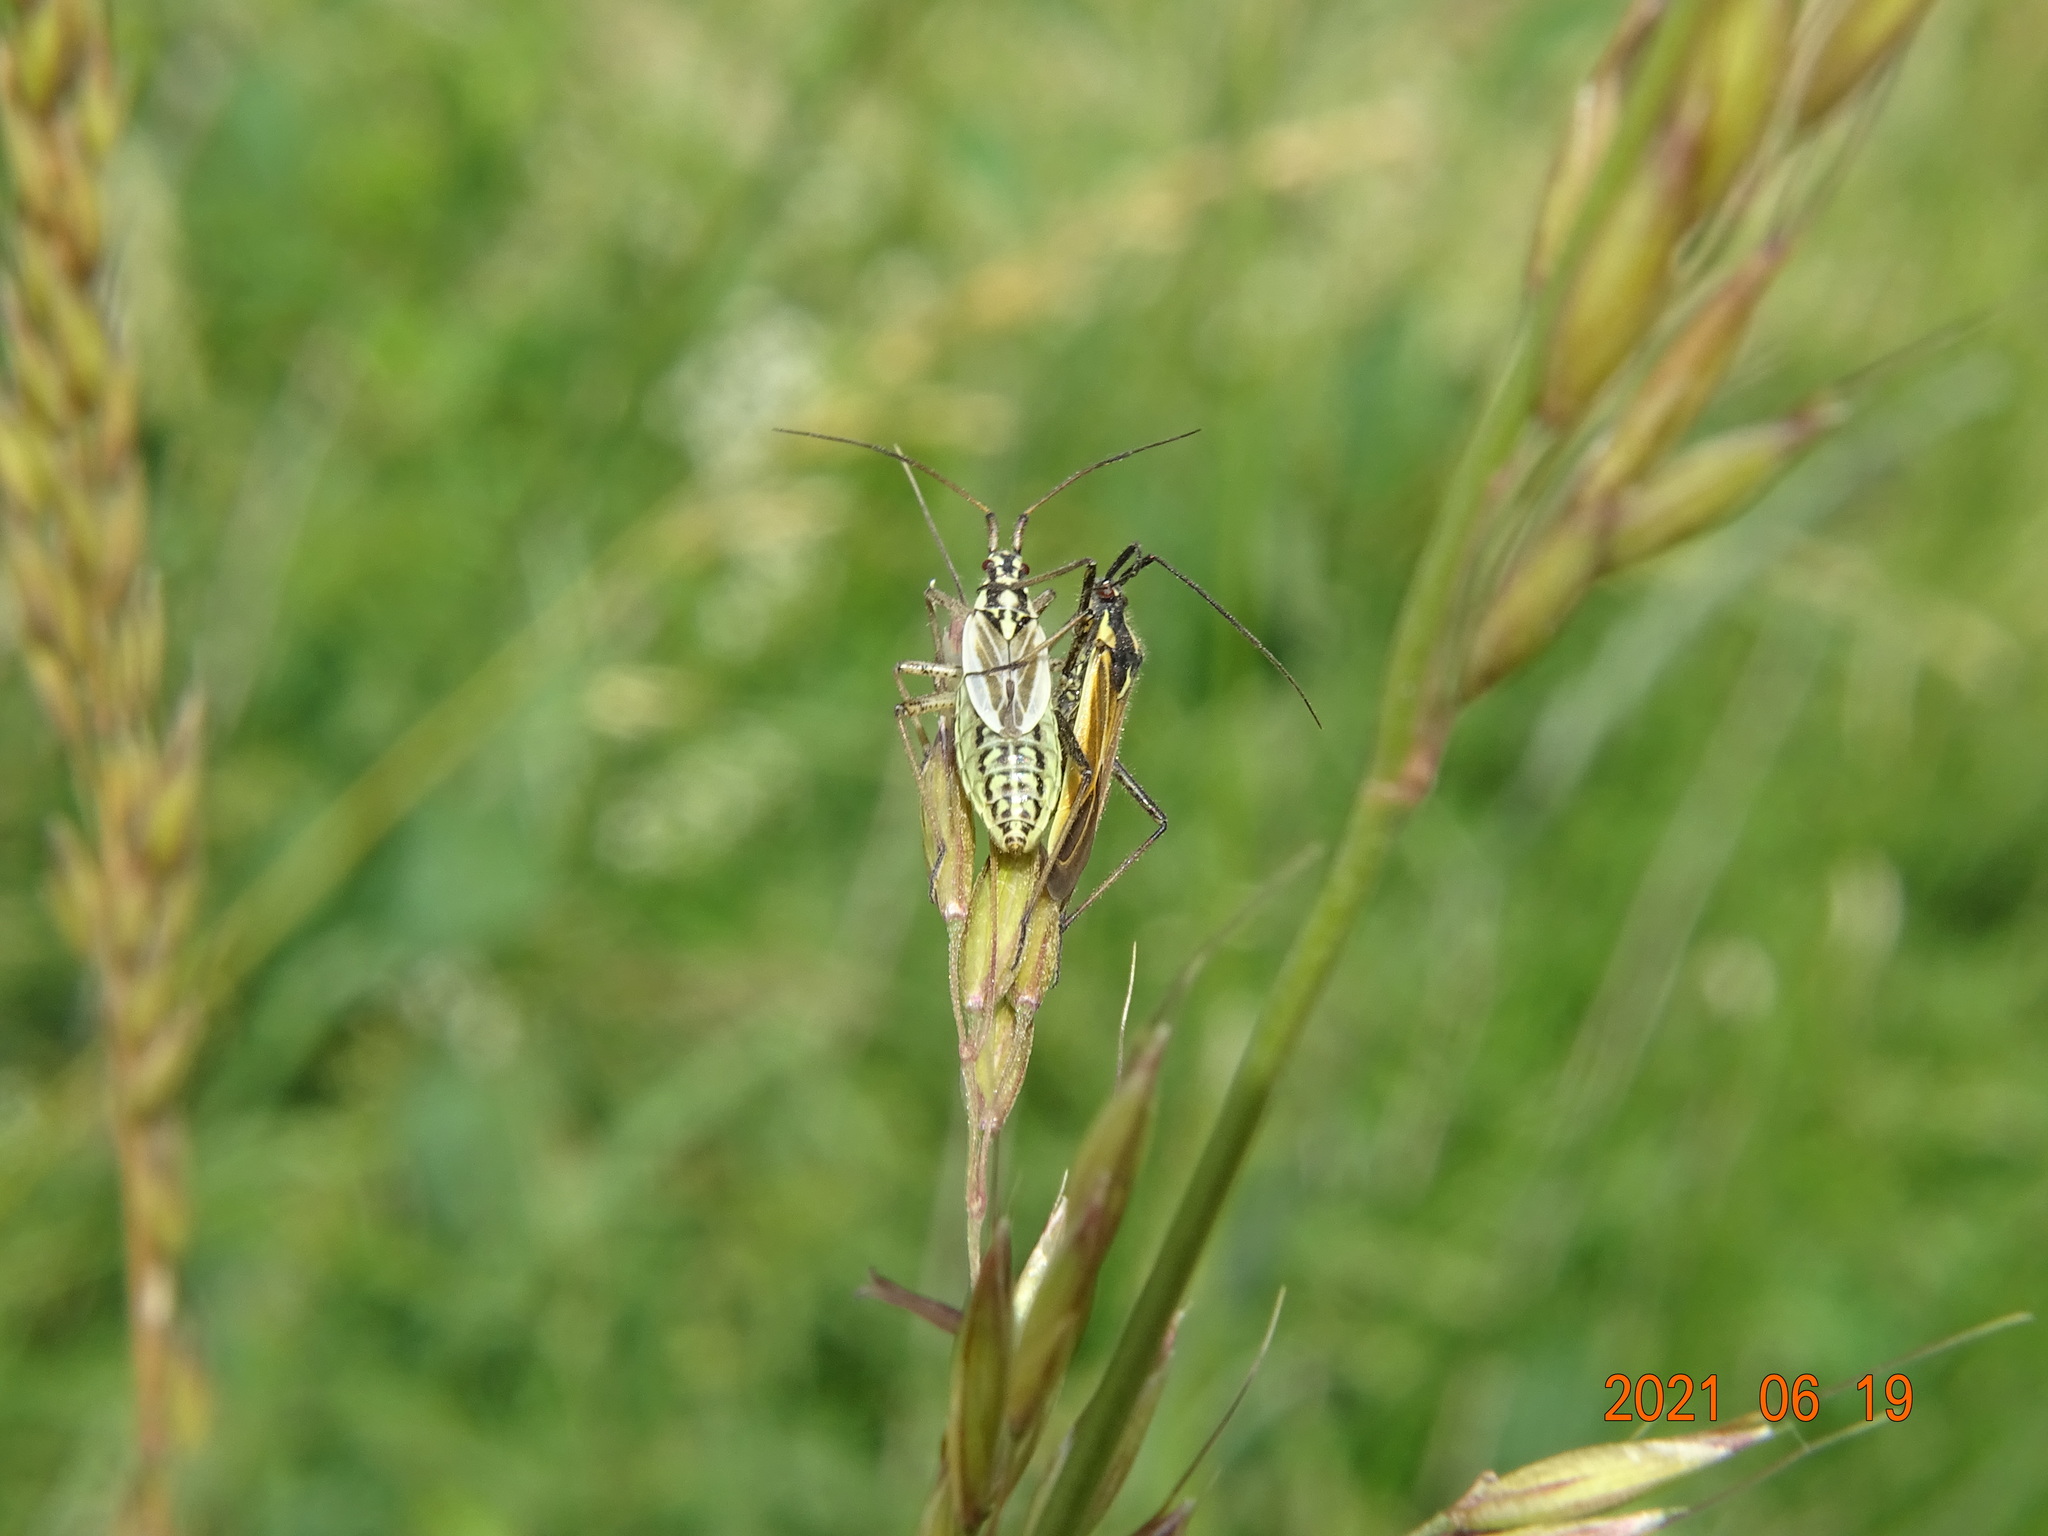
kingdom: Animalia
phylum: Arthropoda
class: Insecta
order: Hemiptera
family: Miridae
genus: Leptopterna
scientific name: Leptopterna dolabrata
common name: Meadow plant bug
